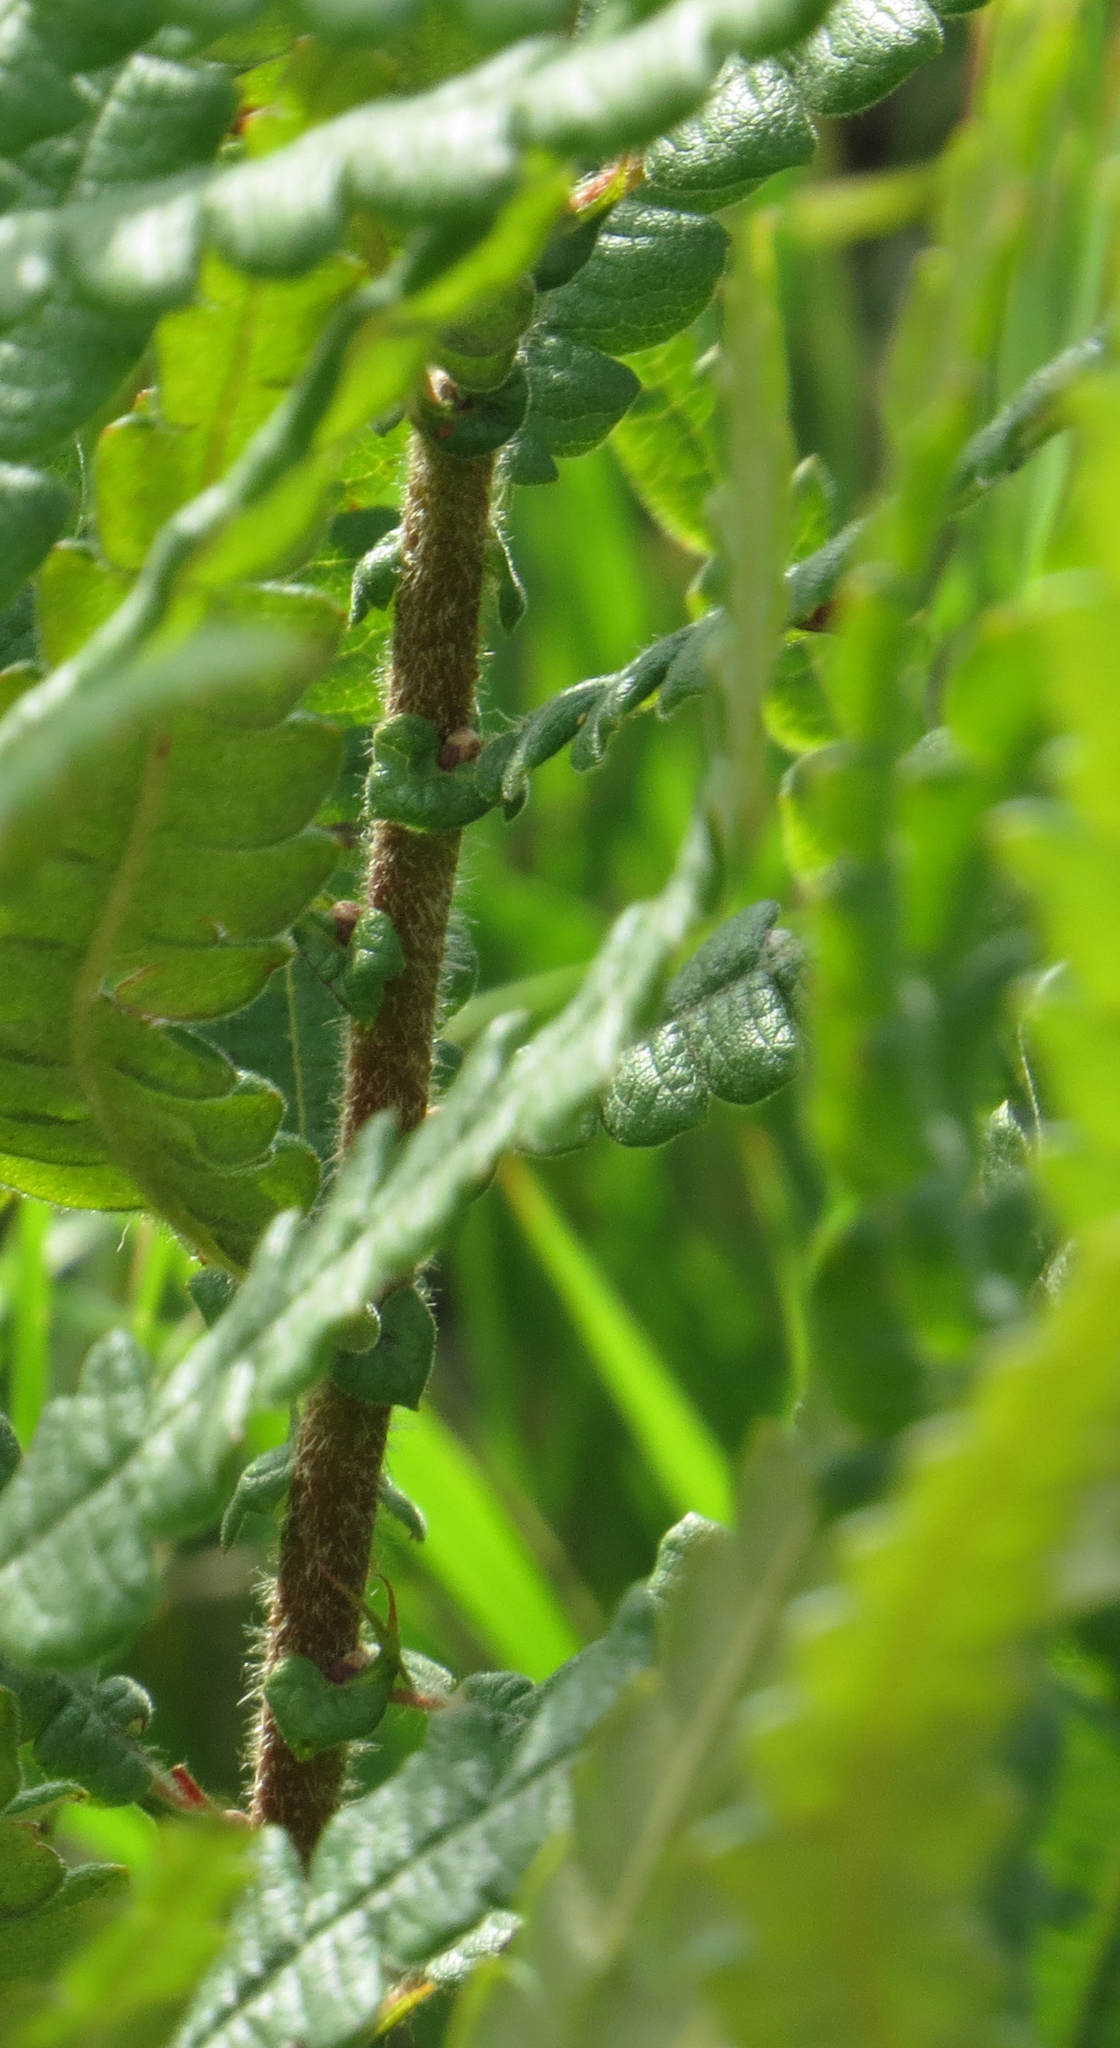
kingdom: Plantae
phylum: Tracheophyta
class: Magnoliopsida
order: Fagales
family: Myricaceae
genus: Comptonia
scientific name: Comptonia peregrina
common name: Sweet-fern
